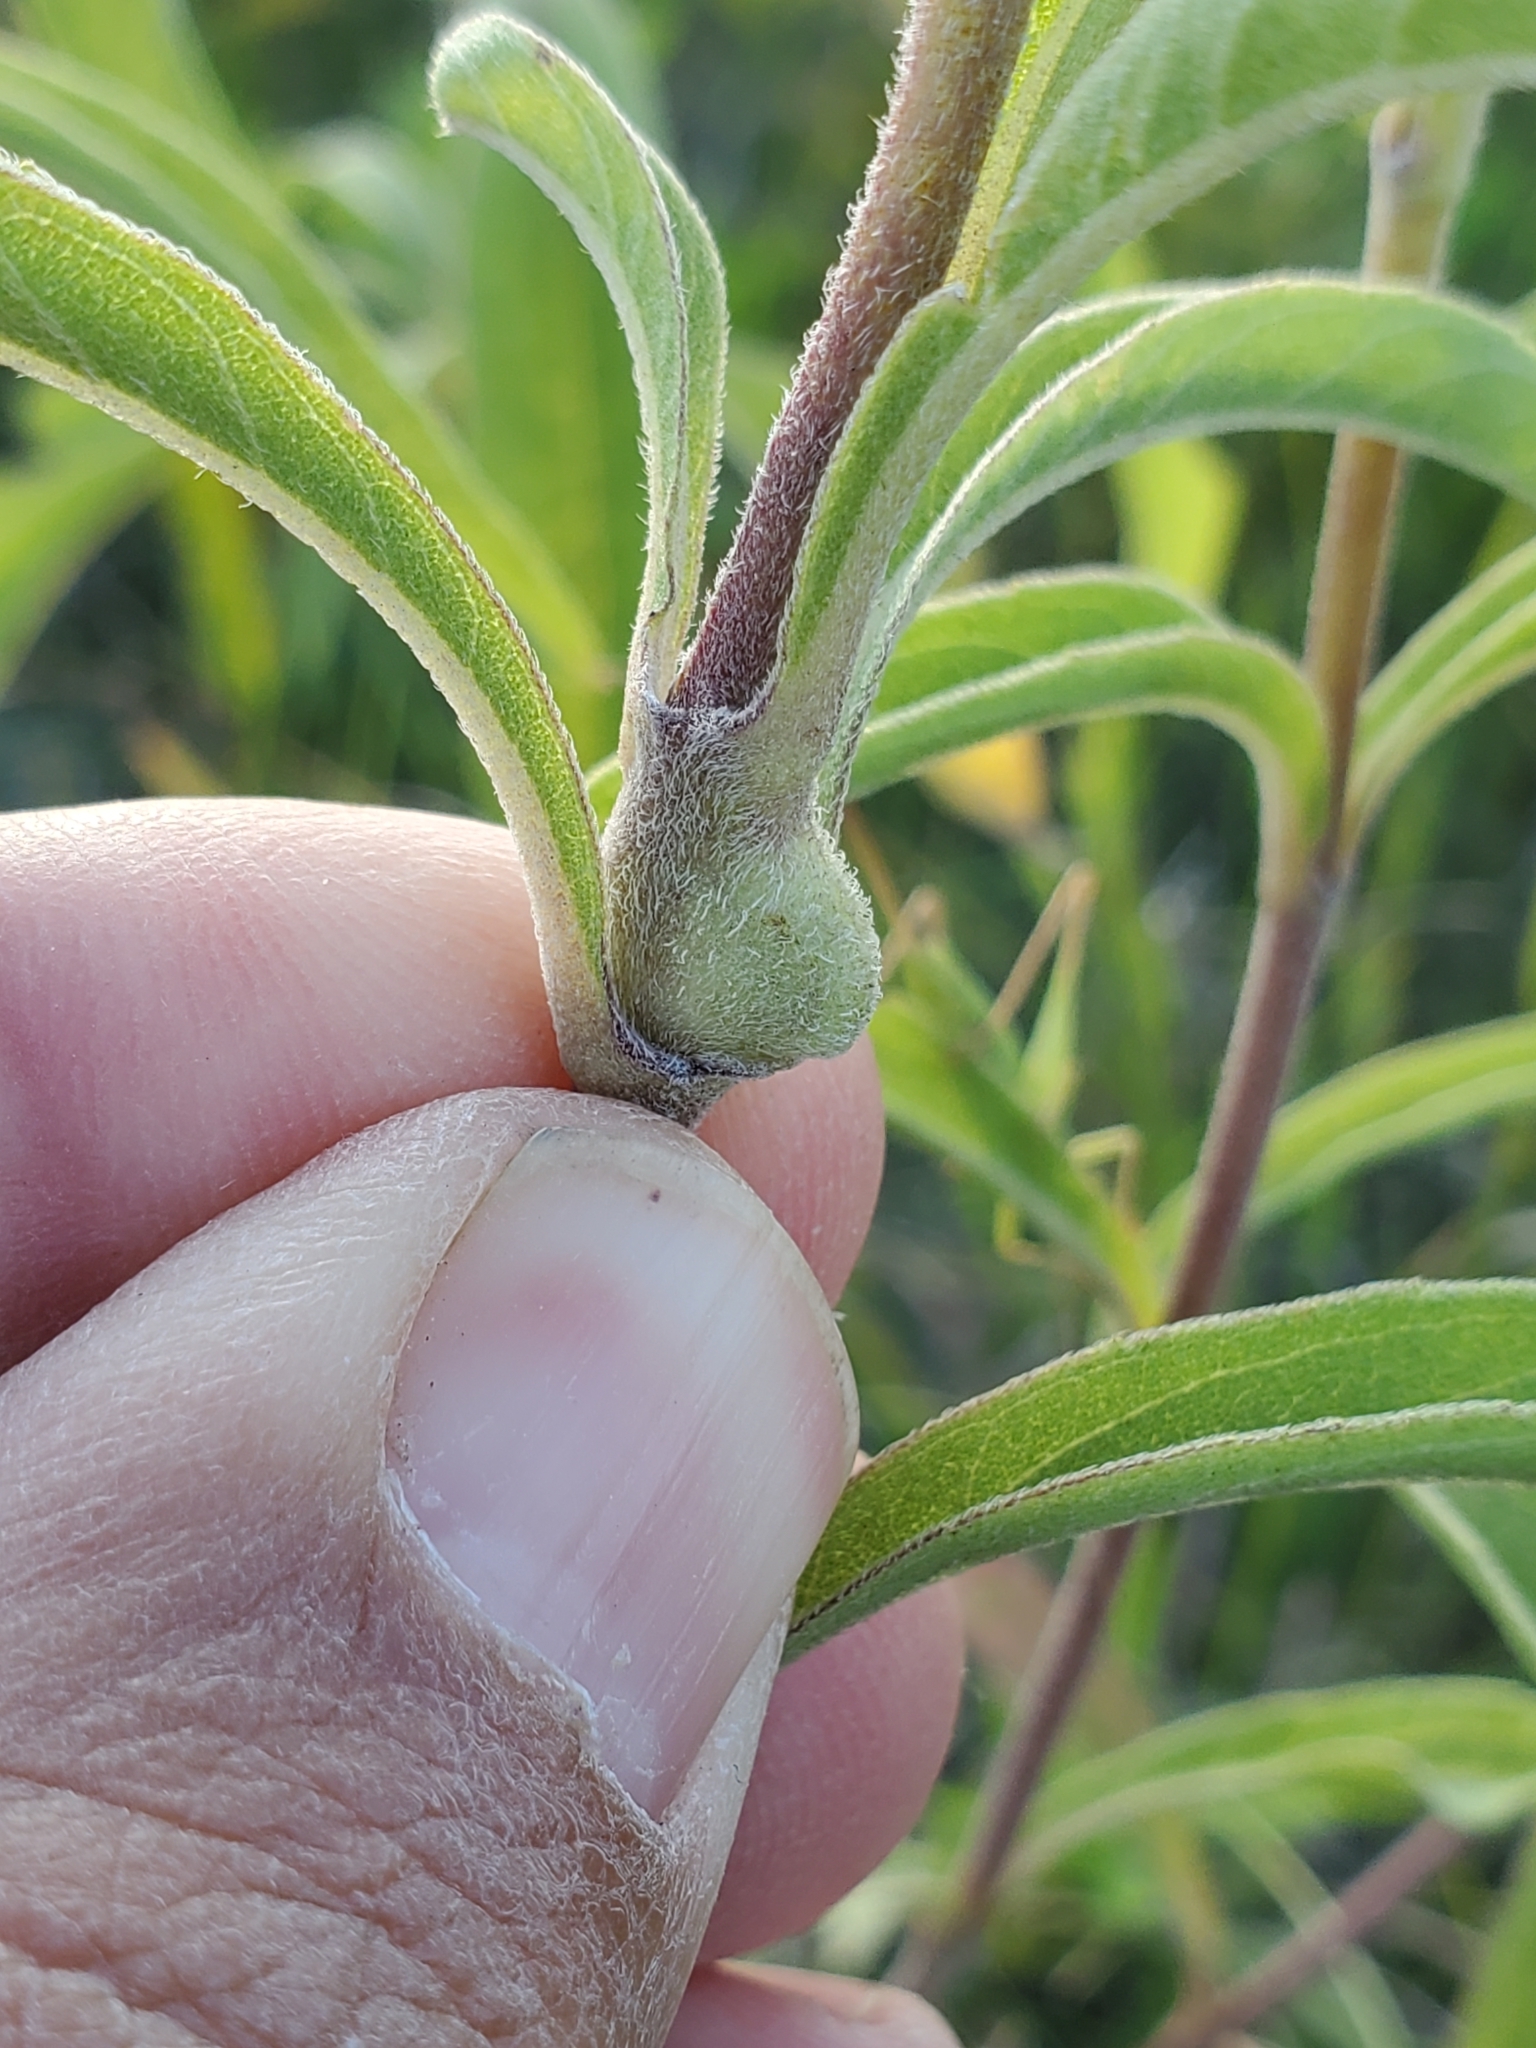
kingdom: Animalia
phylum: Arthropoda
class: Insecta
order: Diptera
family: Cecidomyiidae
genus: Asphondylia
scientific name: Asphondylia helianthiglobulus
